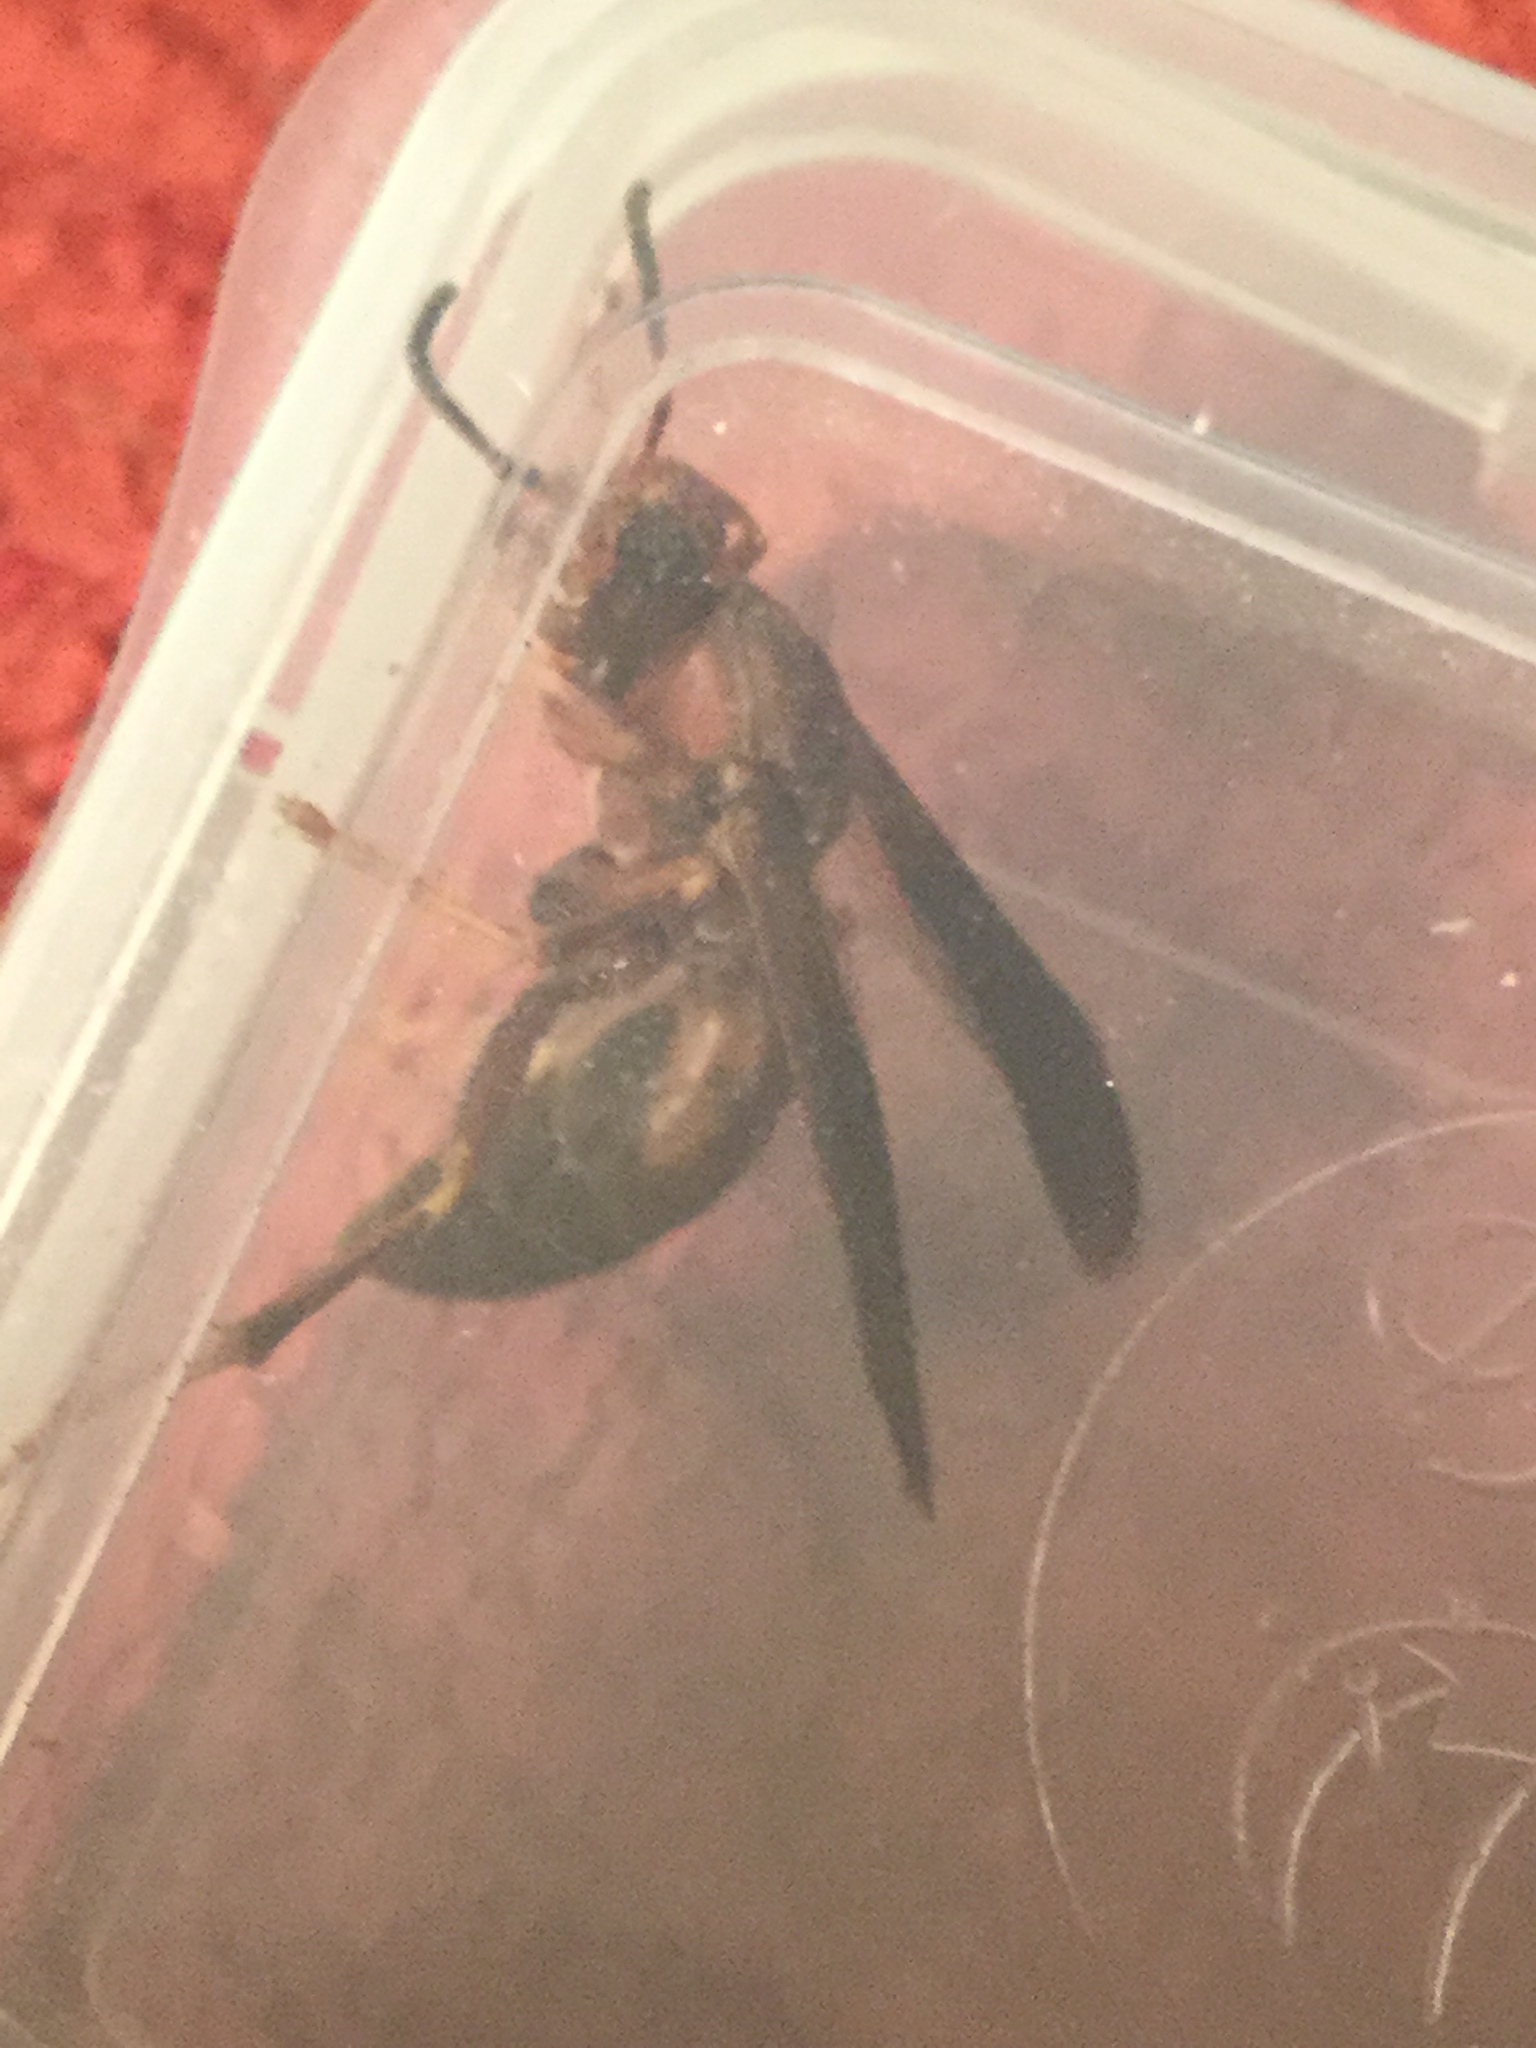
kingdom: Animalia
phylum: Arthropoda
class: Insecta
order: Hymenoptera
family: Eumenidae
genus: Polistes
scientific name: Polistes metricus
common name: Metric paper wasp
